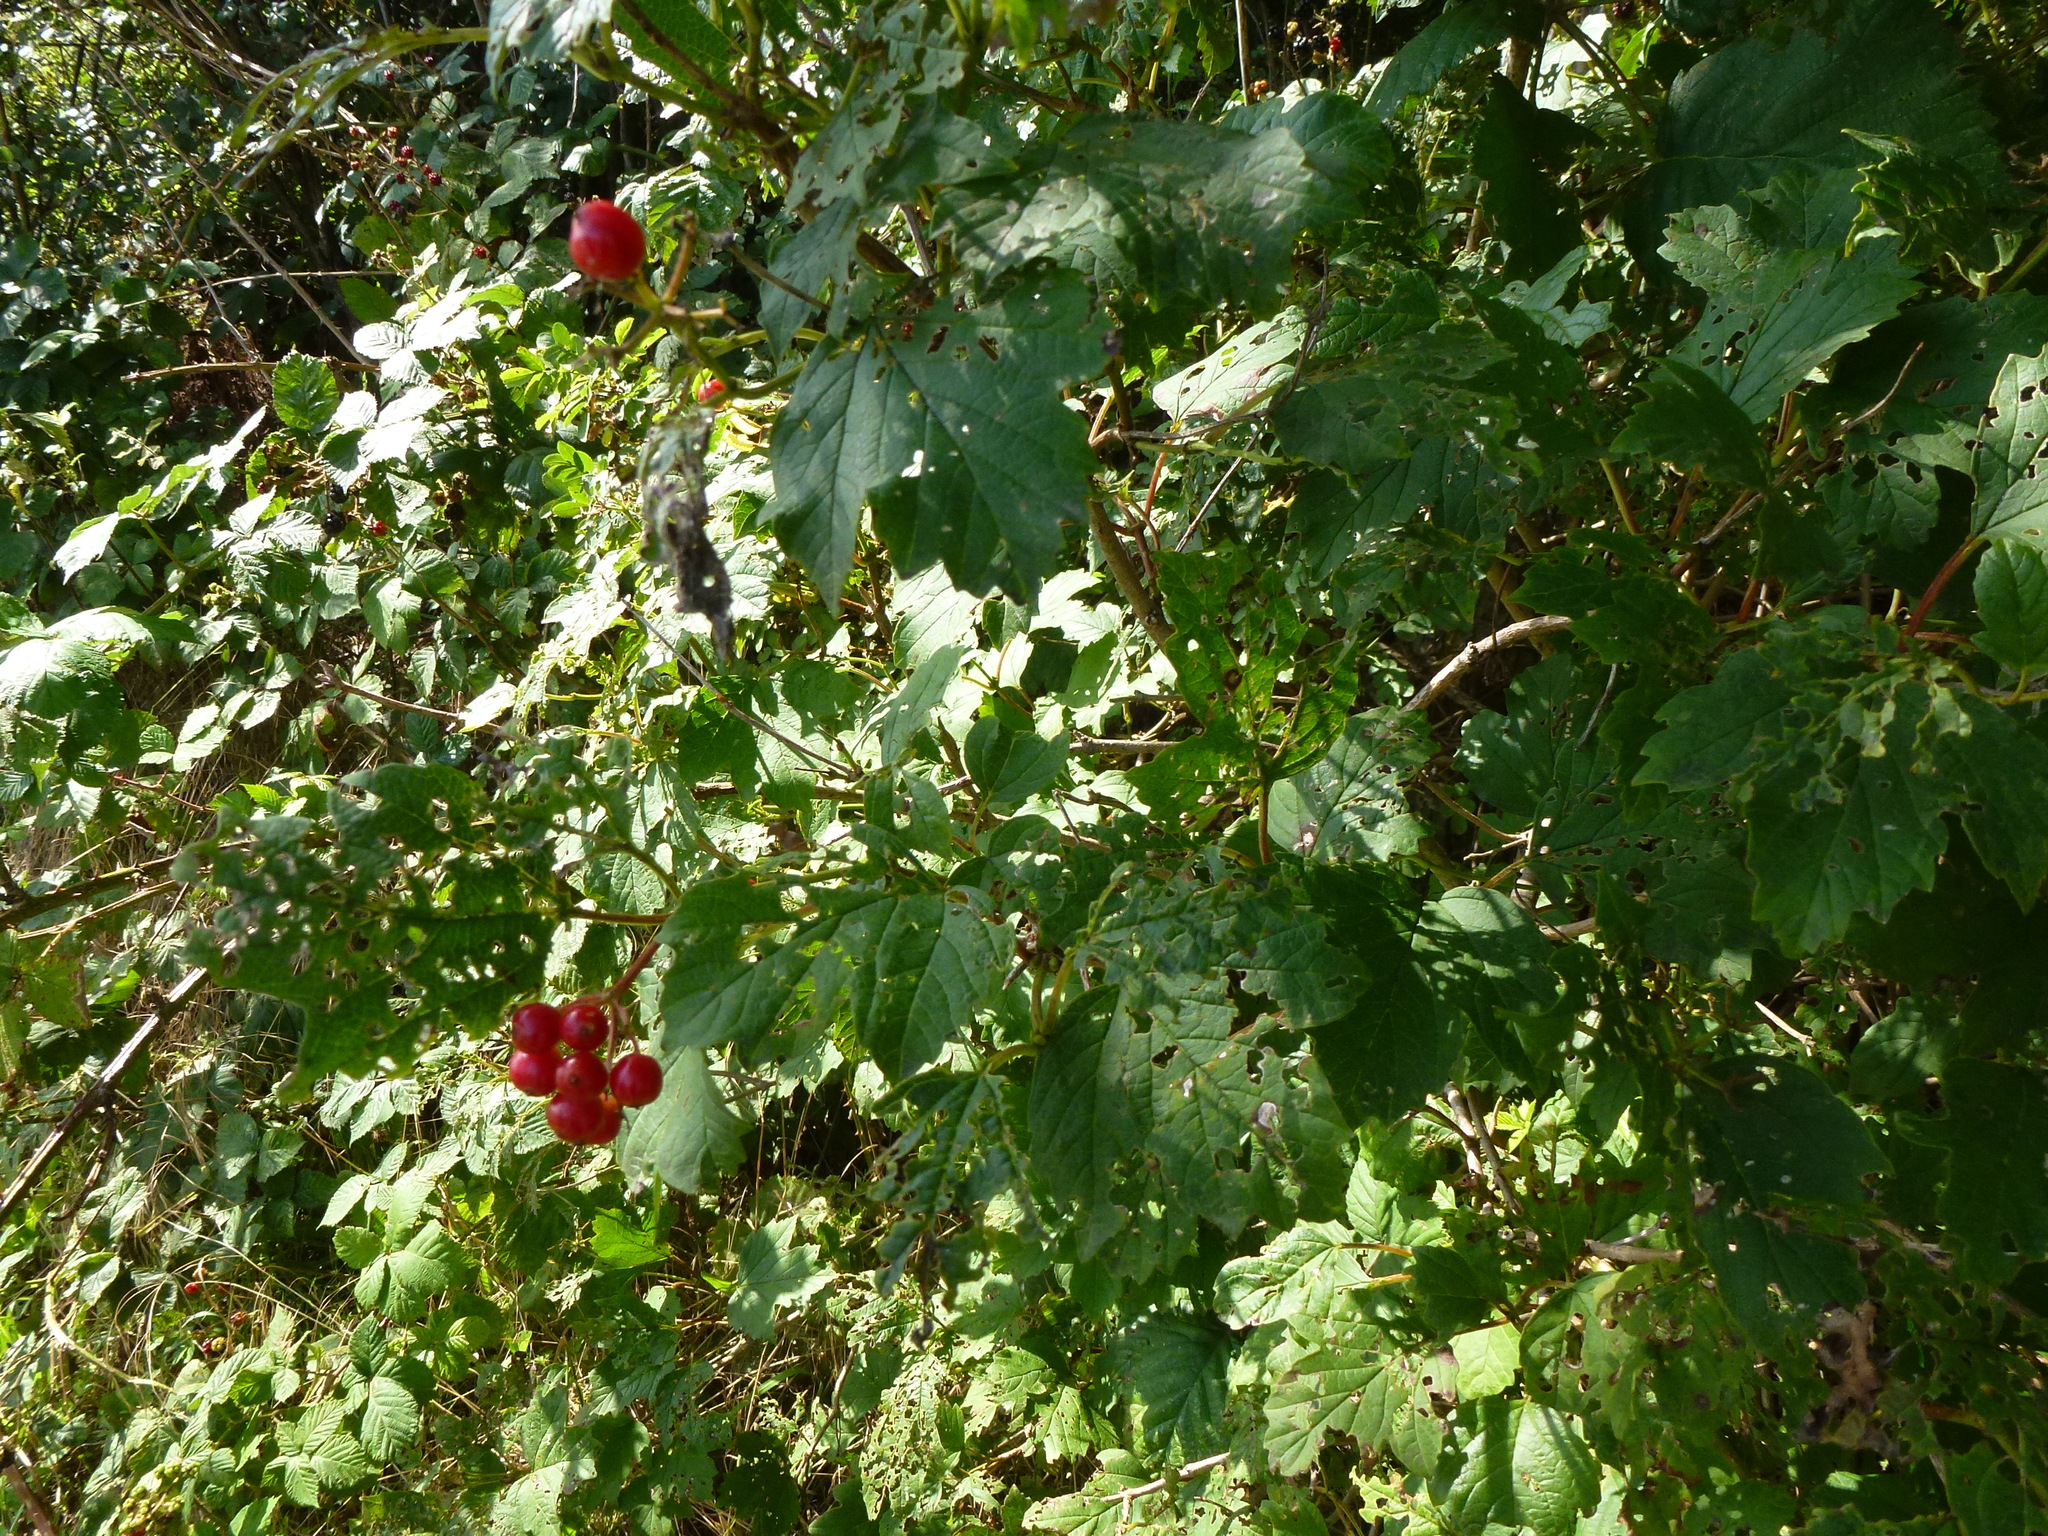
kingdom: Plantae
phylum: Tracheophyta
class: Magnoliopsida
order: Dipsacales
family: Viburnaceae
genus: Viburnum
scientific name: Viburnum opulus
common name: Guelder-rose
